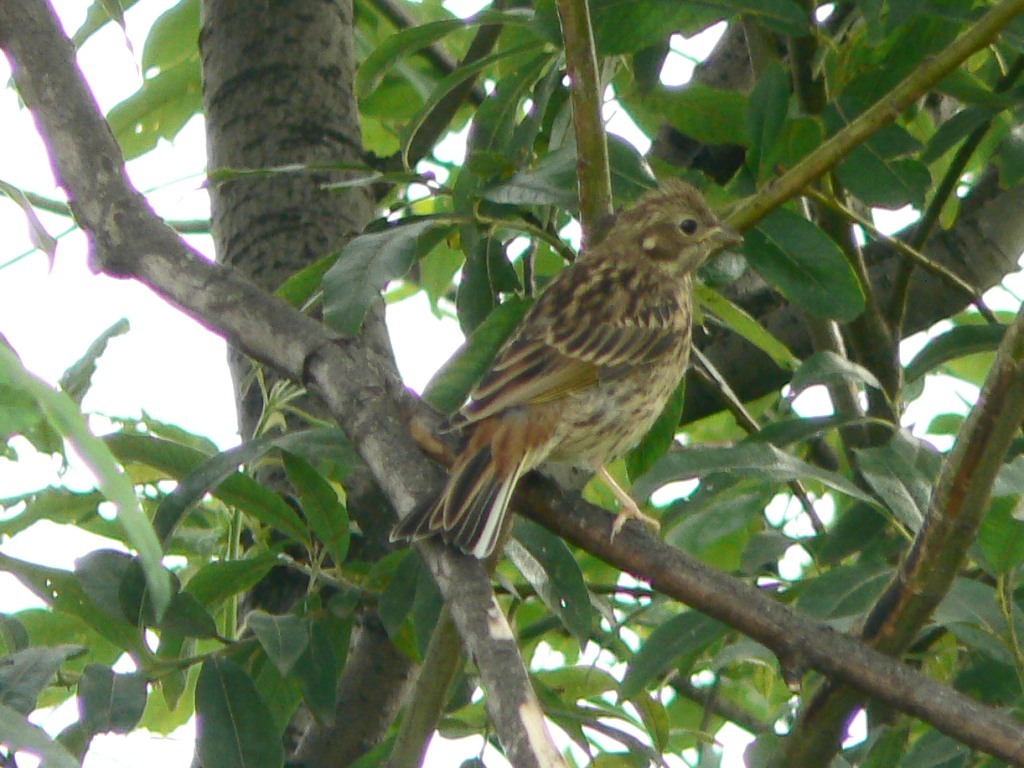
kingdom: Animalia
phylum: Chordata
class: Aves
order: Passeriformes
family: Emberizidae
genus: Emberiza
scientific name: Emberiza citrinella
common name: Yellowhammer
